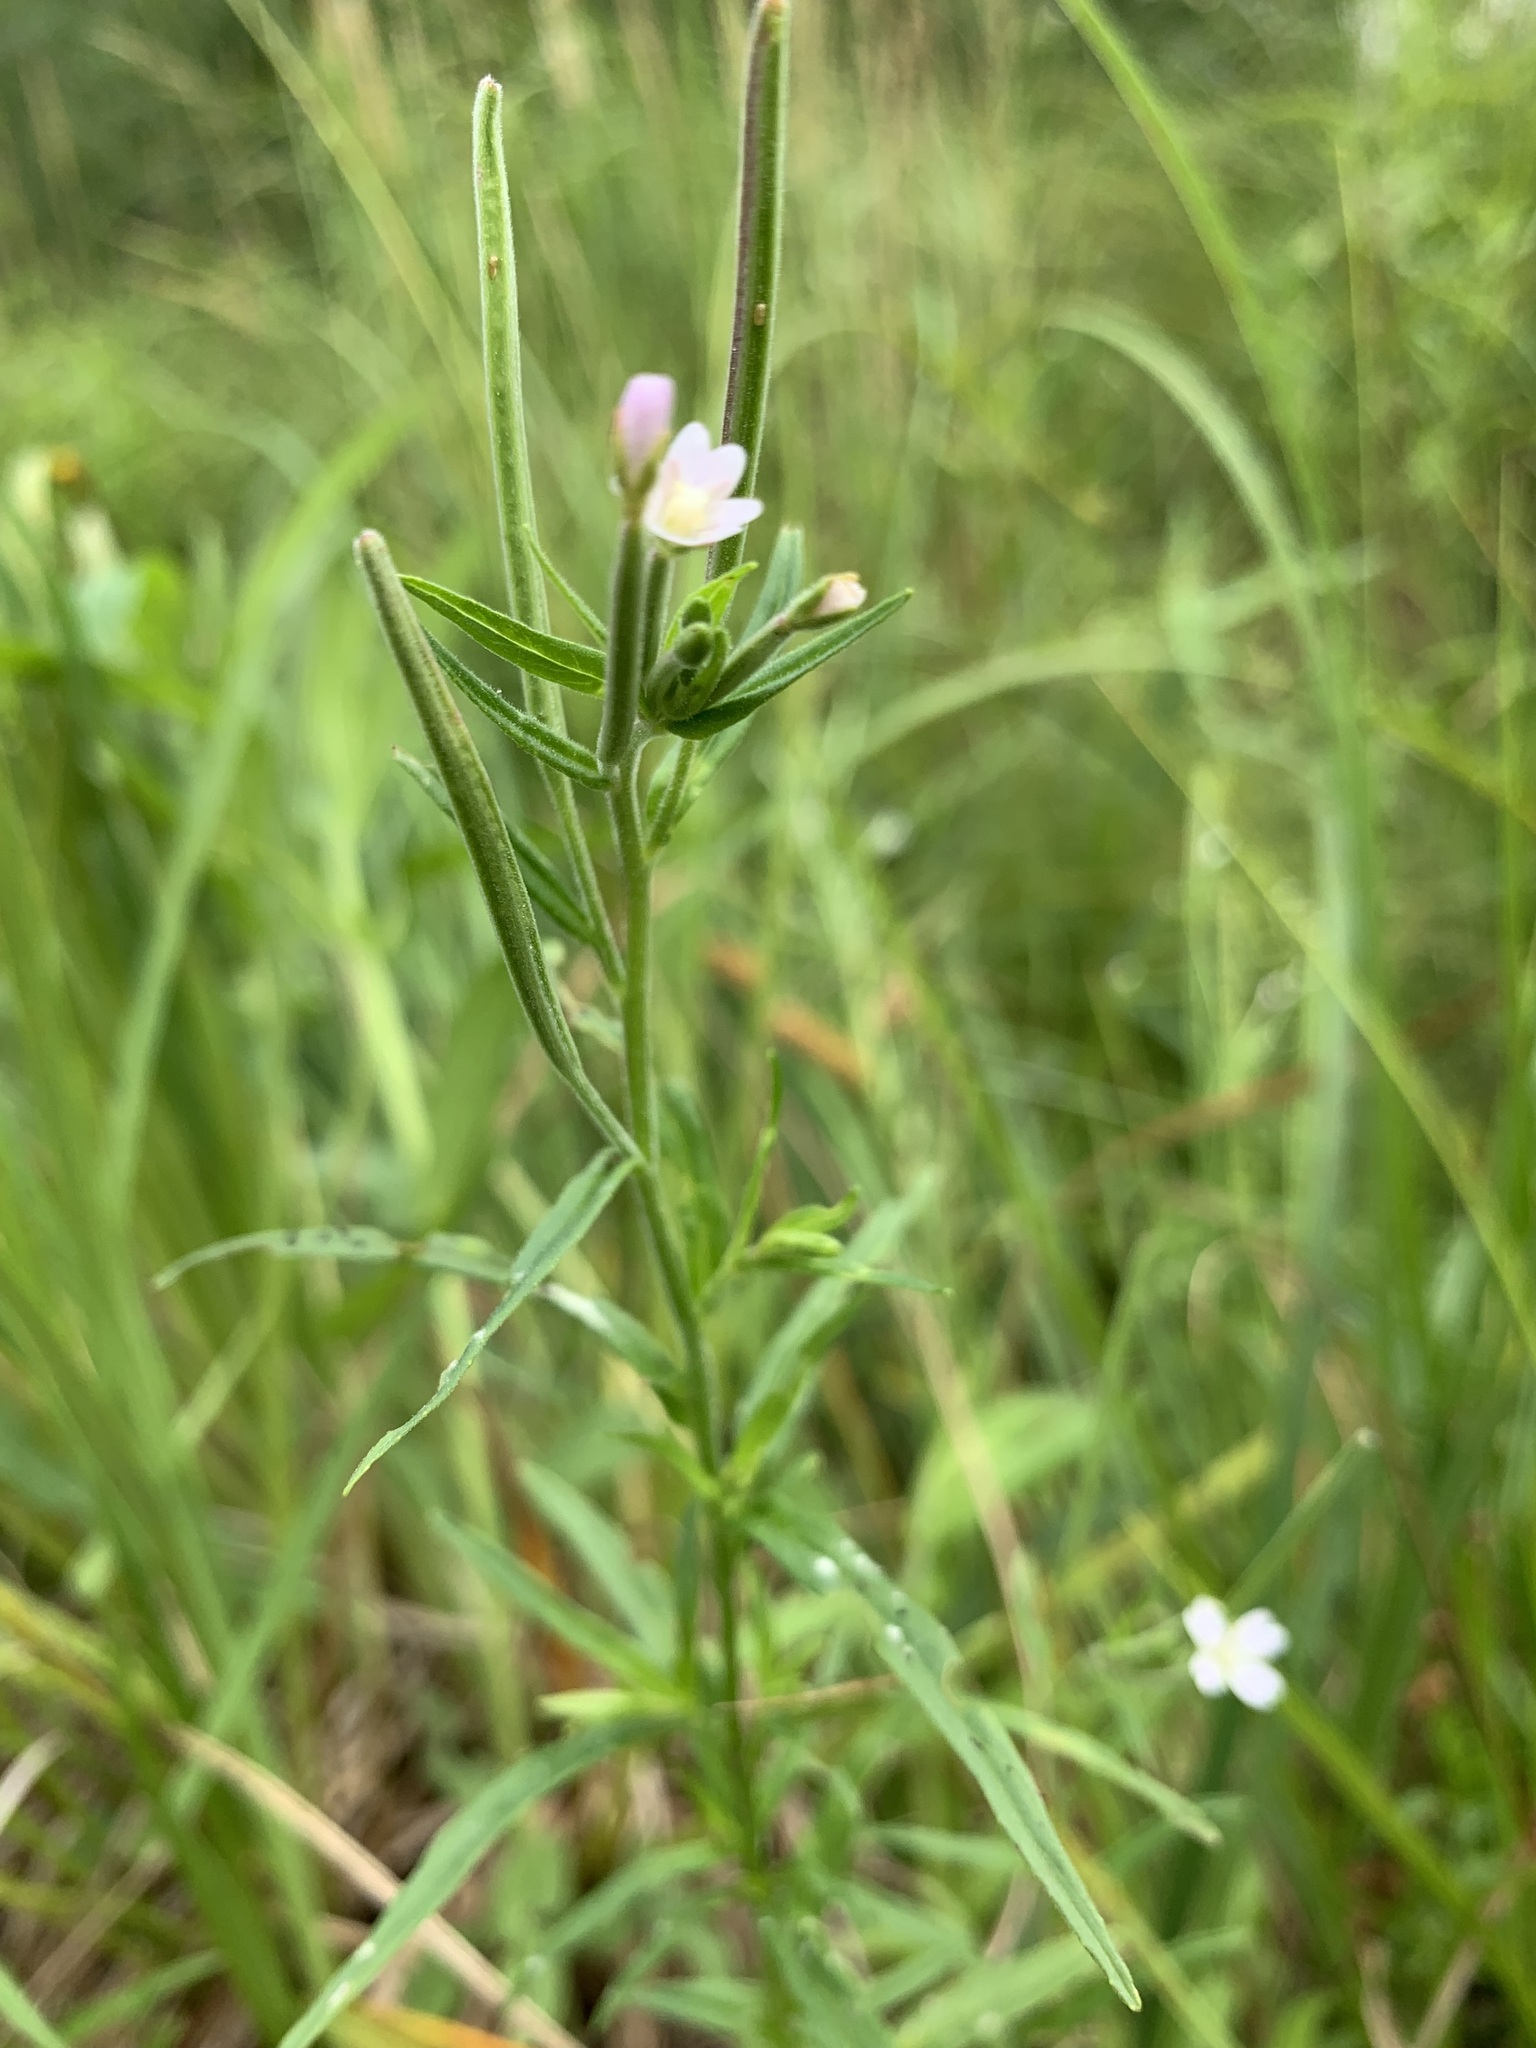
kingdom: Plantae
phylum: Tracheophyta
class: Magnoliopsida
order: Myrtales
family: Onagraceae
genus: Epilobium
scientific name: Epilobium palustre
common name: Marsh willowherb
